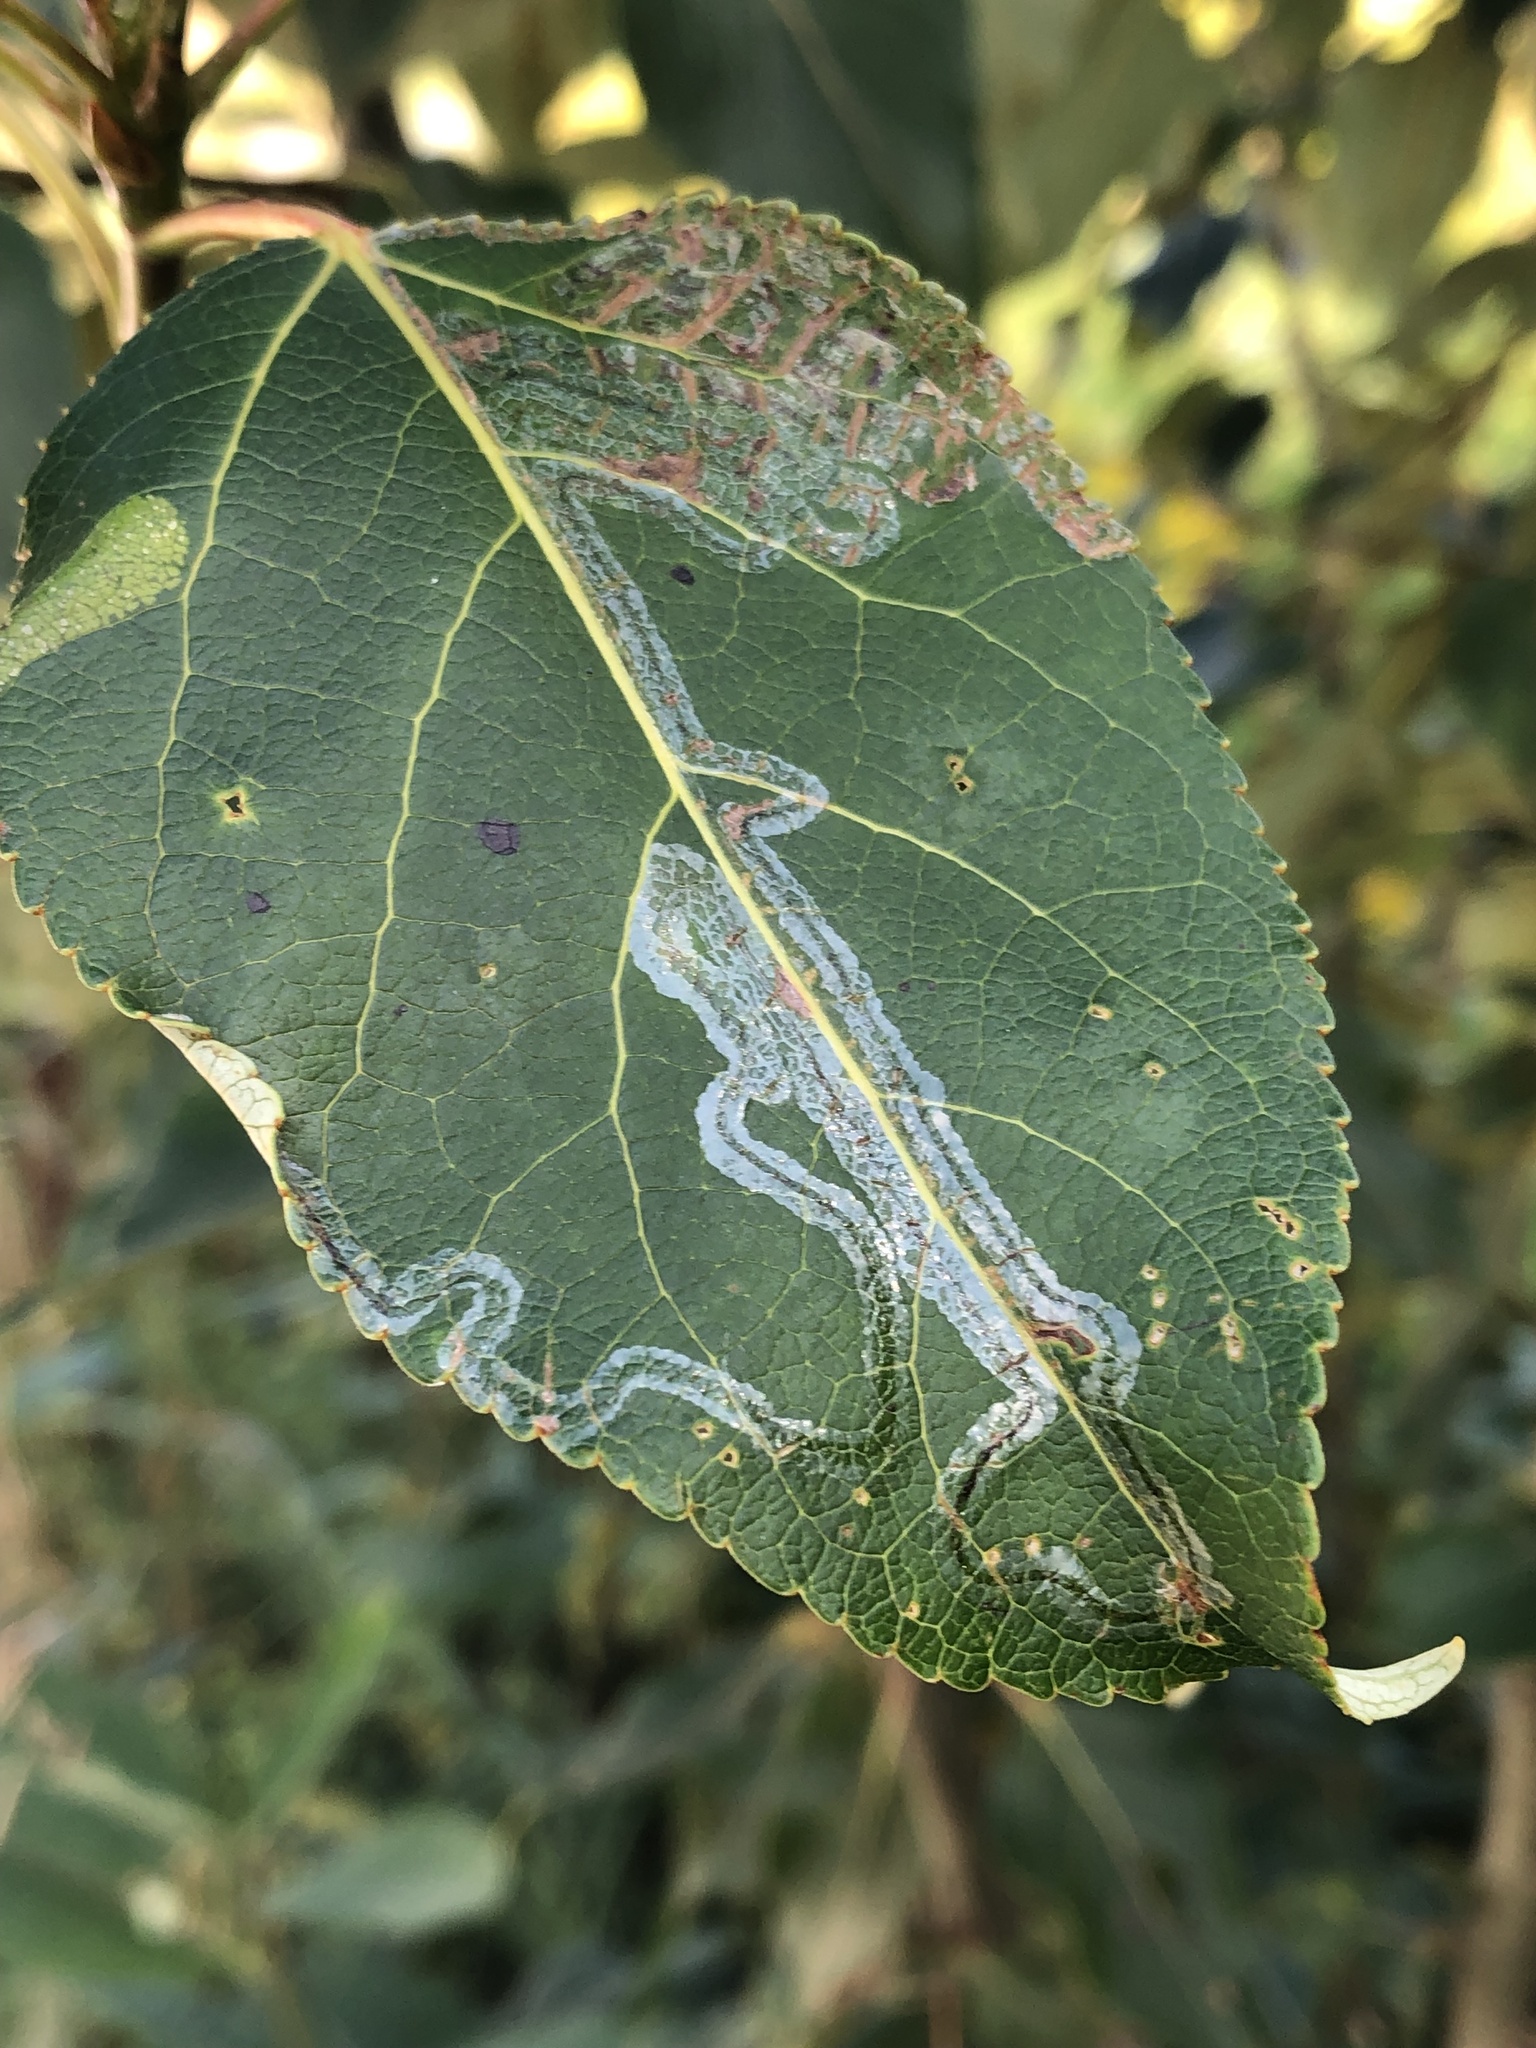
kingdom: Animalia
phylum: Arthropoda
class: Insecta
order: Lepidoptera
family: Gracillariidae
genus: Phyllocnistis
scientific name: Phyllocnistis populiella
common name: Aspen serpentine leafminer moth
